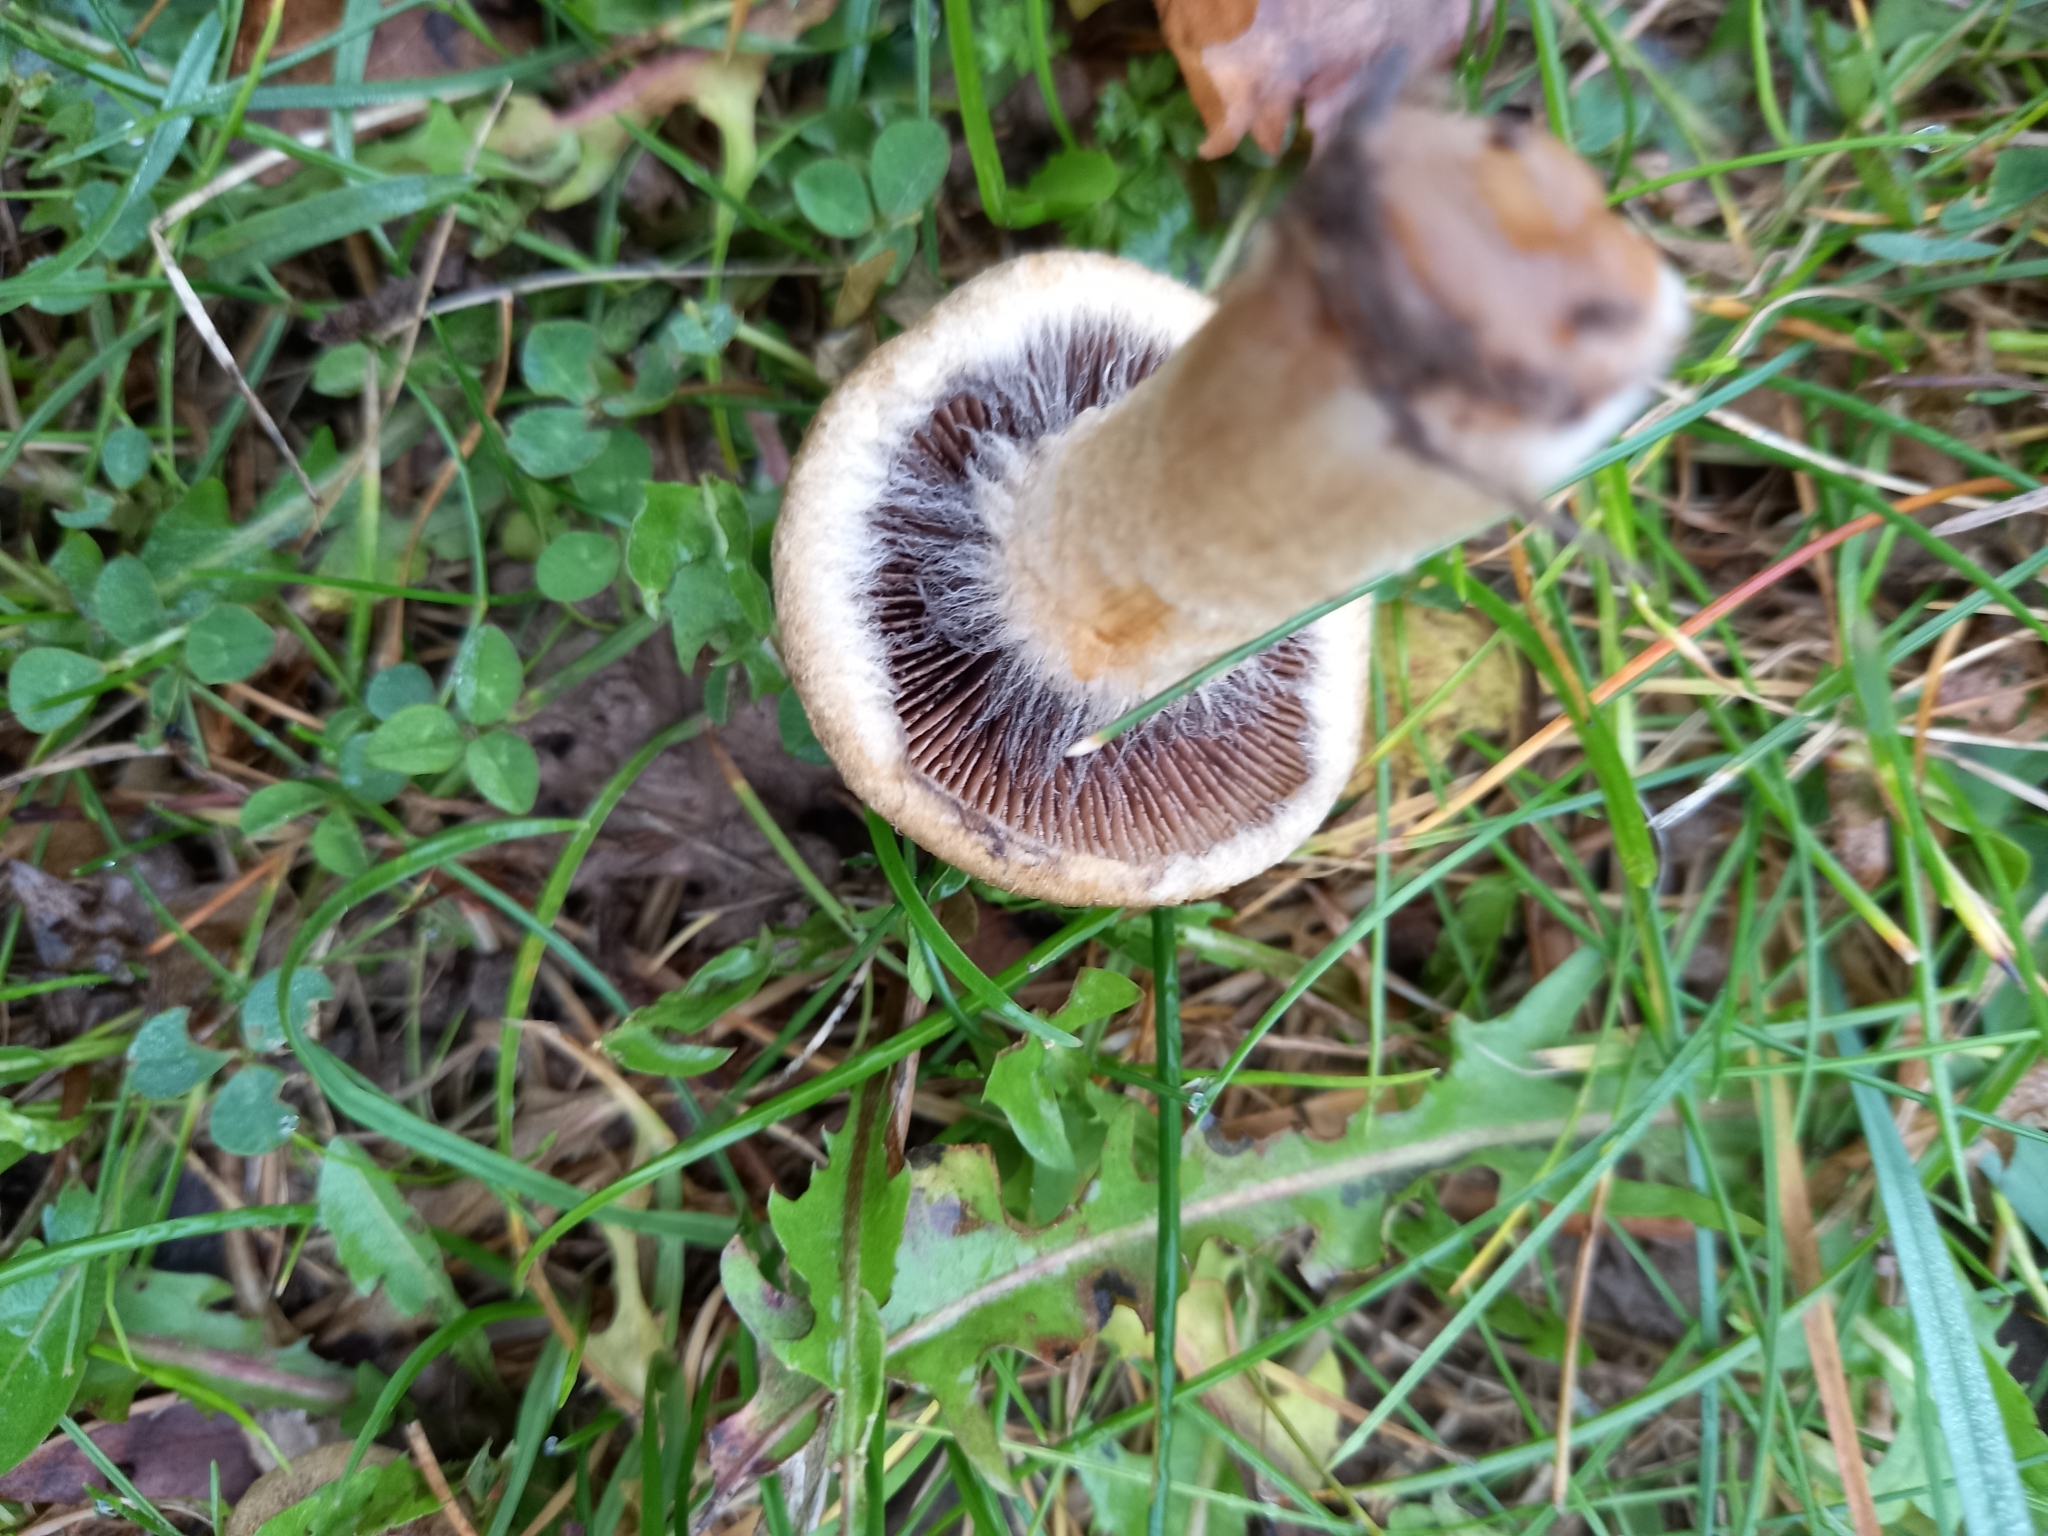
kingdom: Fungi
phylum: Basidiomycota
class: Agaricomycetes
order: Agaricales
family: Psathyrellaceae
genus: Lacrymaria
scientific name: Lacrymaria lacrymabunda
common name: Weeping widow
